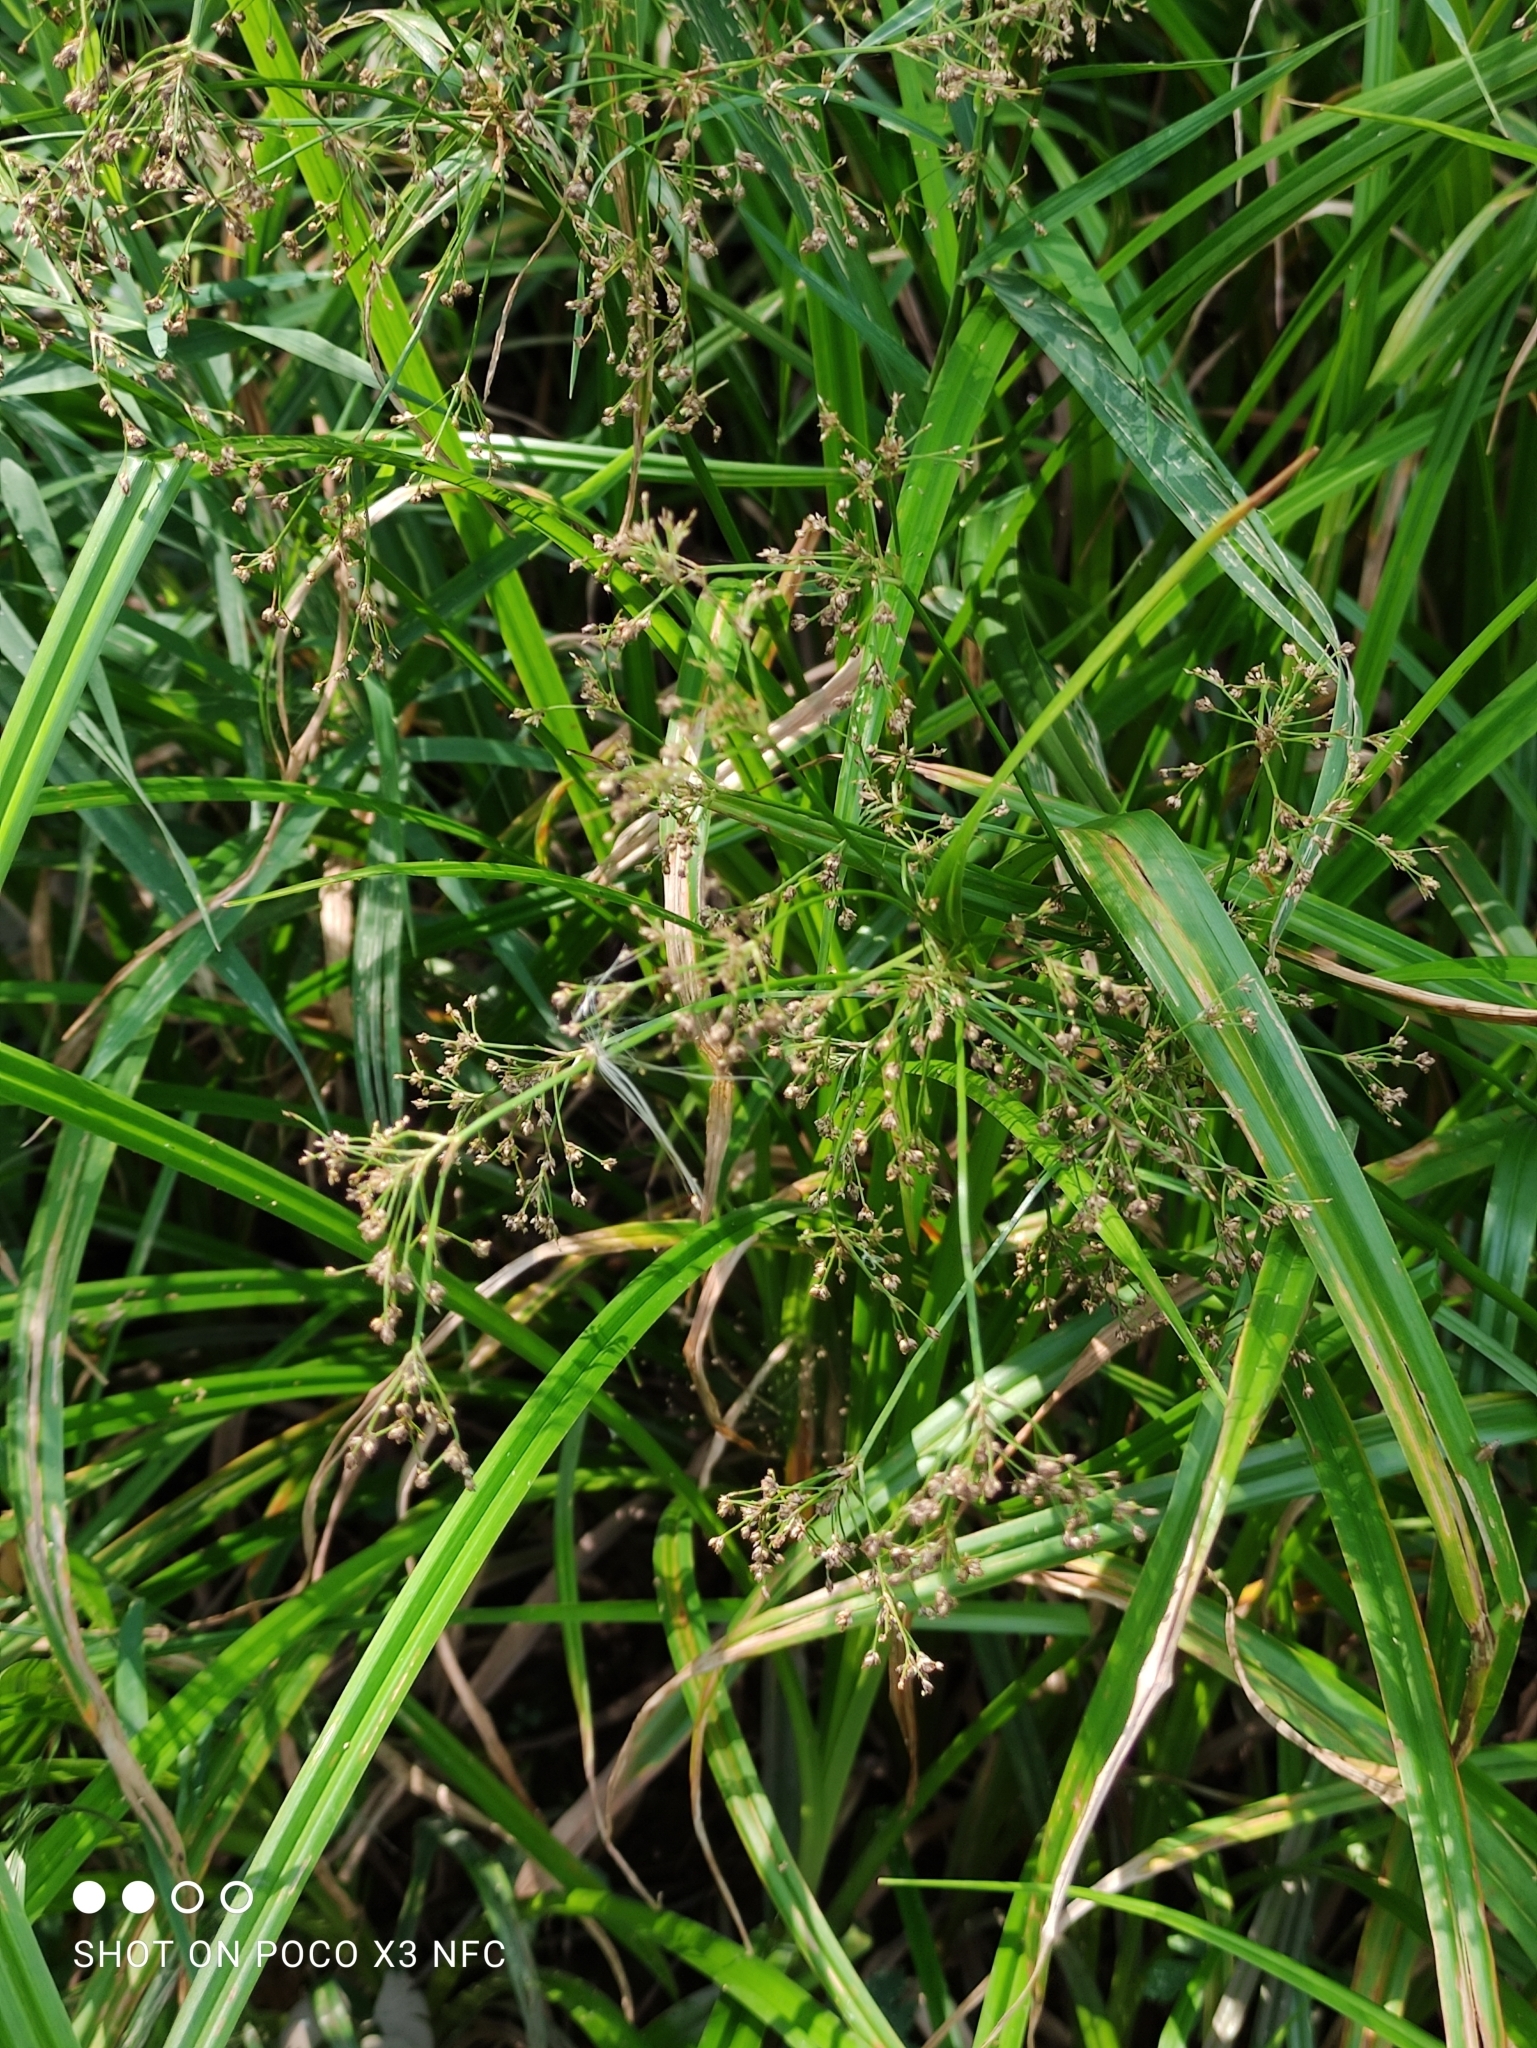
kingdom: Plantae
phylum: Tracheophyta
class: Liliopsida
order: Poales
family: Cyperaceae
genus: Scirpus
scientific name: Scirpus sylvaticus
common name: Wood club-rush
